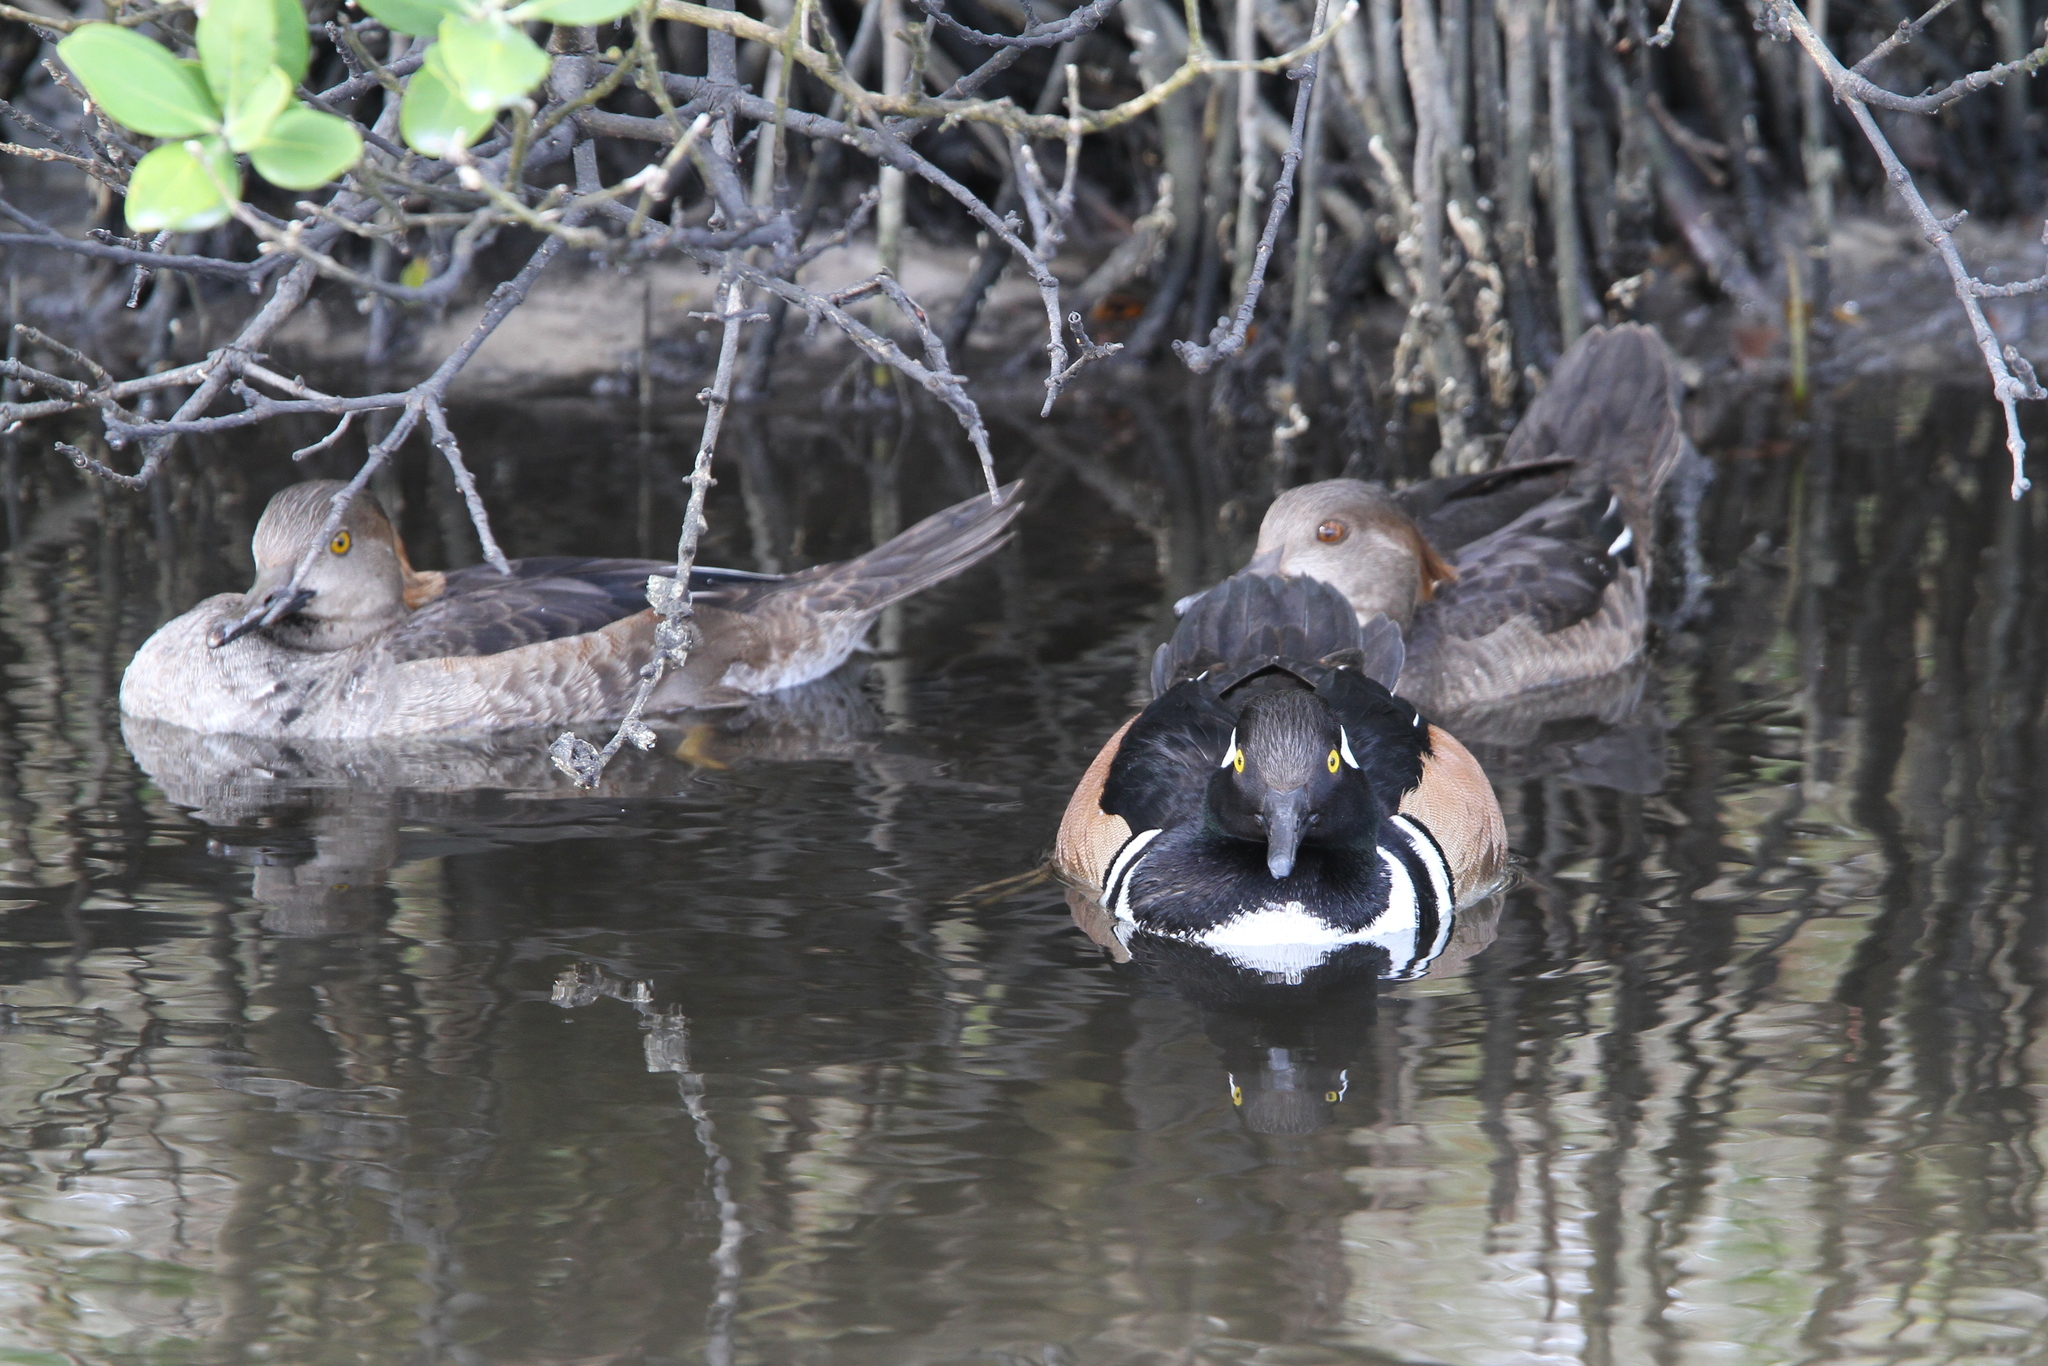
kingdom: Animalia
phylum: Chordata
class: Aves
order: Anseriformes
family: Anatidae
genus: Lophodytes
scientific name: Lophodytes cucullatus
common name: Hooded merganser
